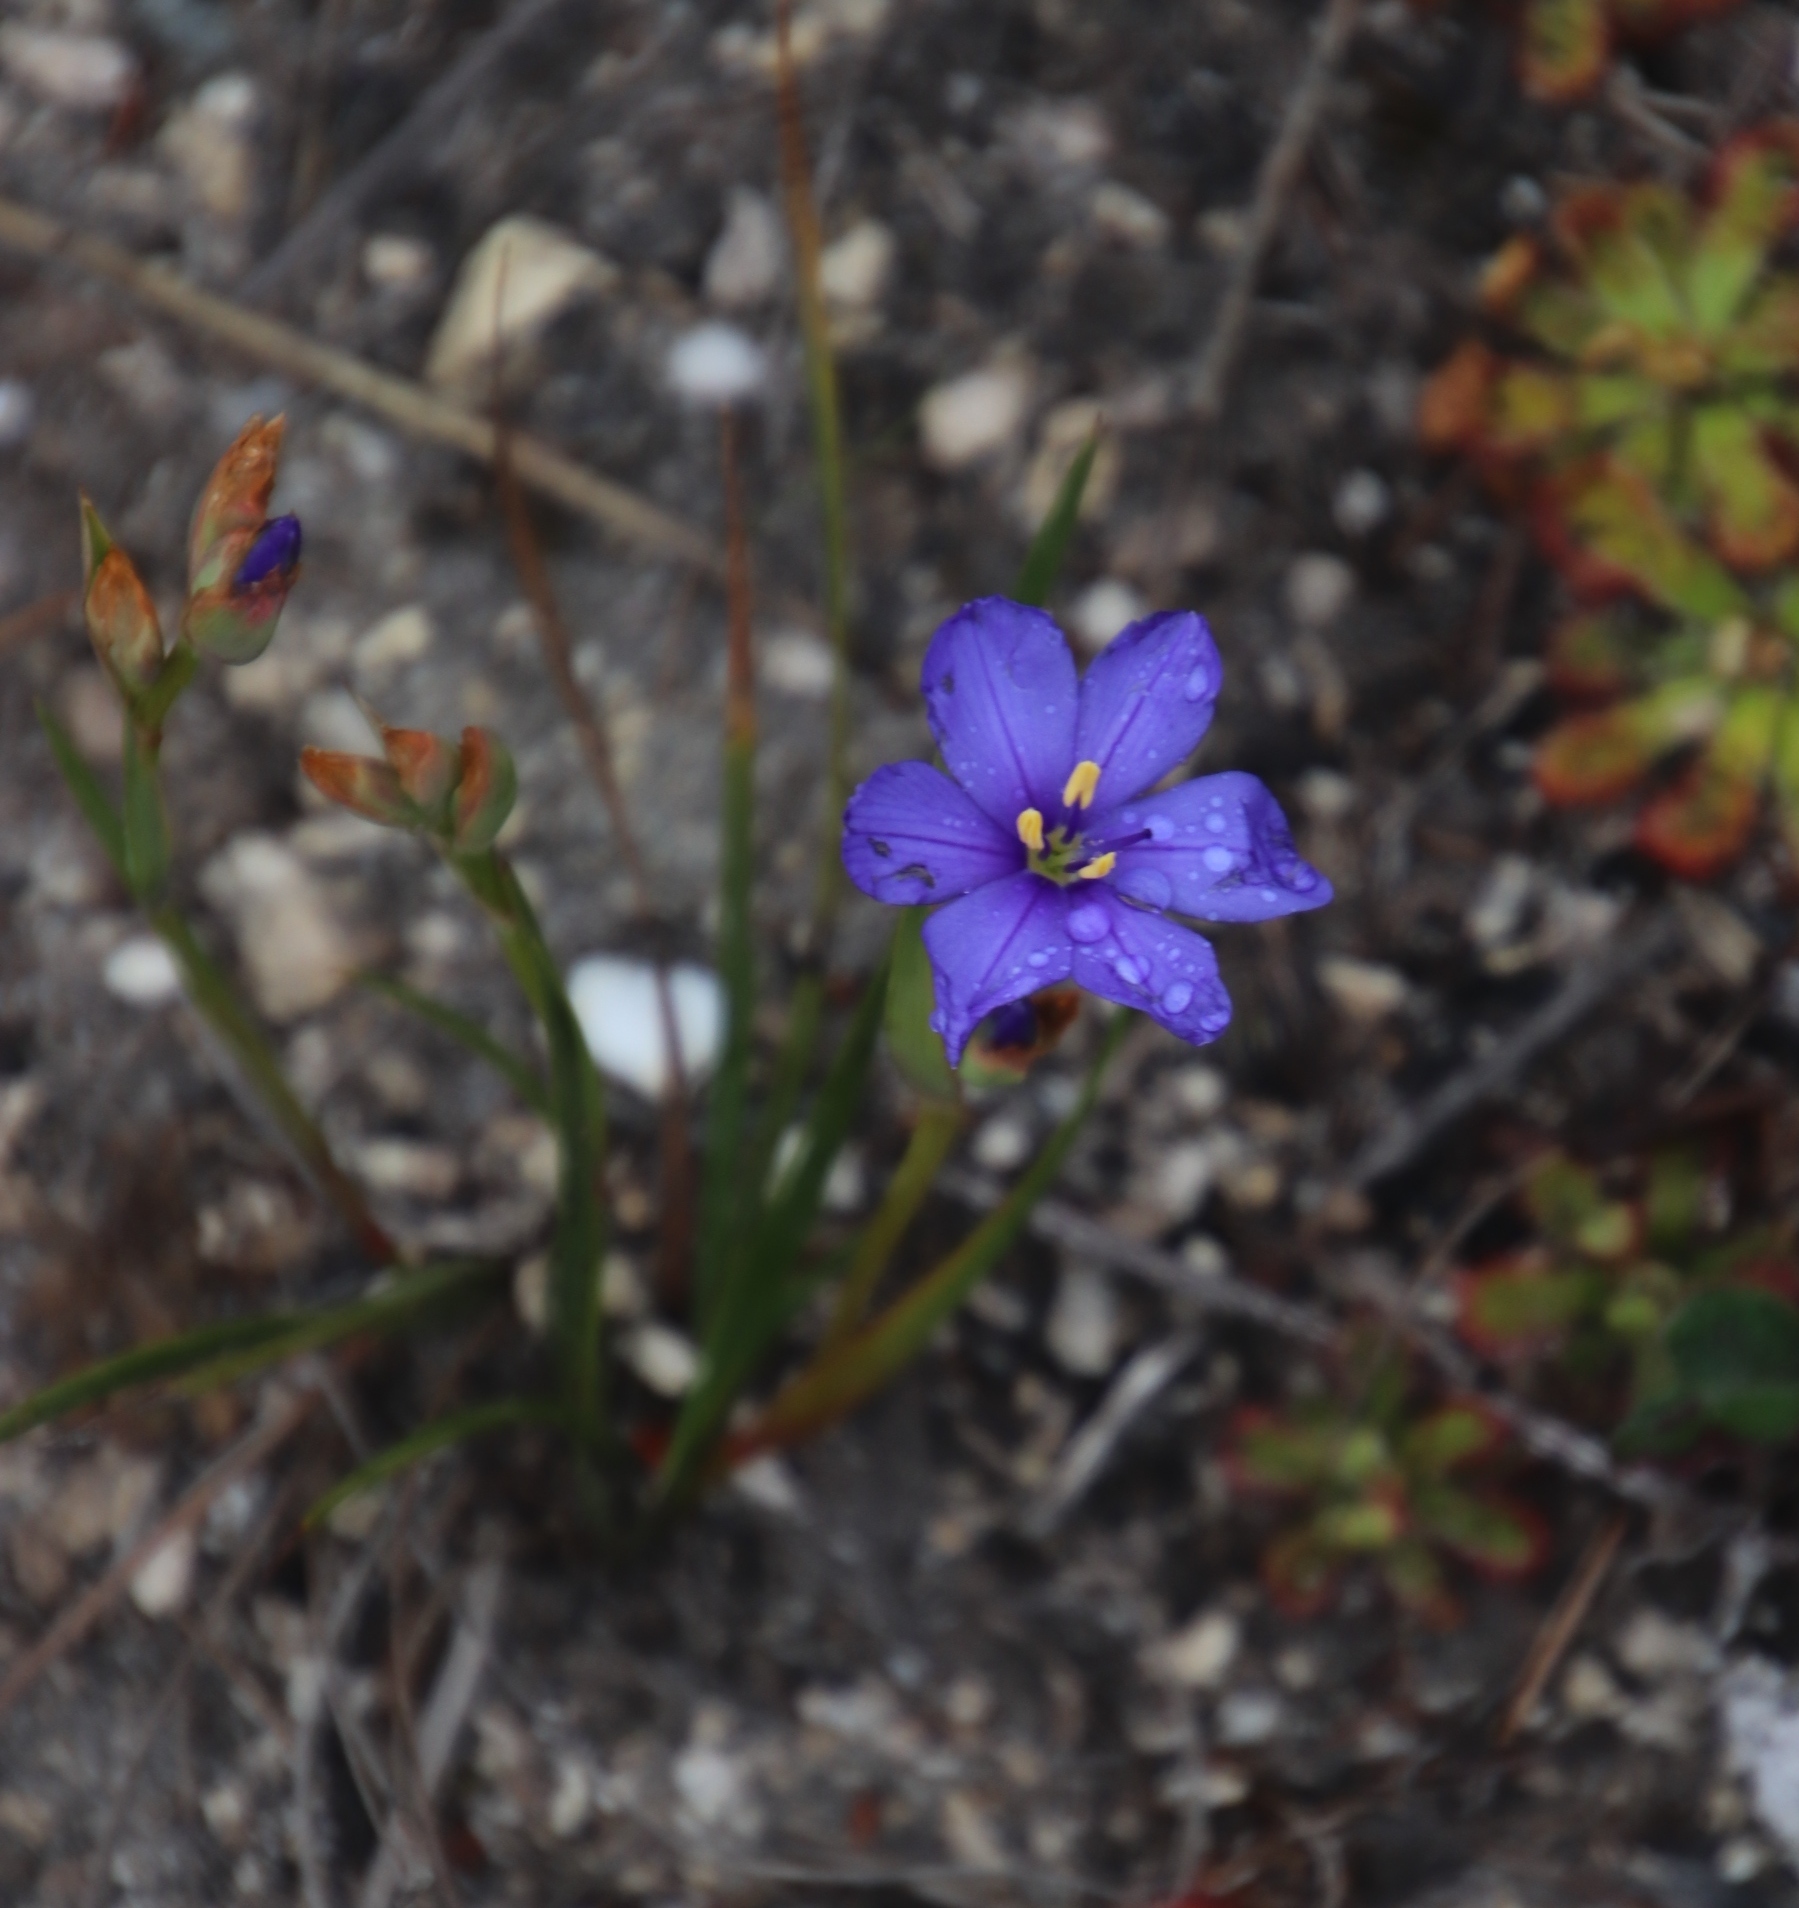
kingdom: Plantae
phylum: Tracheophyta
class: Liliopsida
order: Asparagales
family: Iridaceae
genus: Aristea
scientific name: Aristea africana
